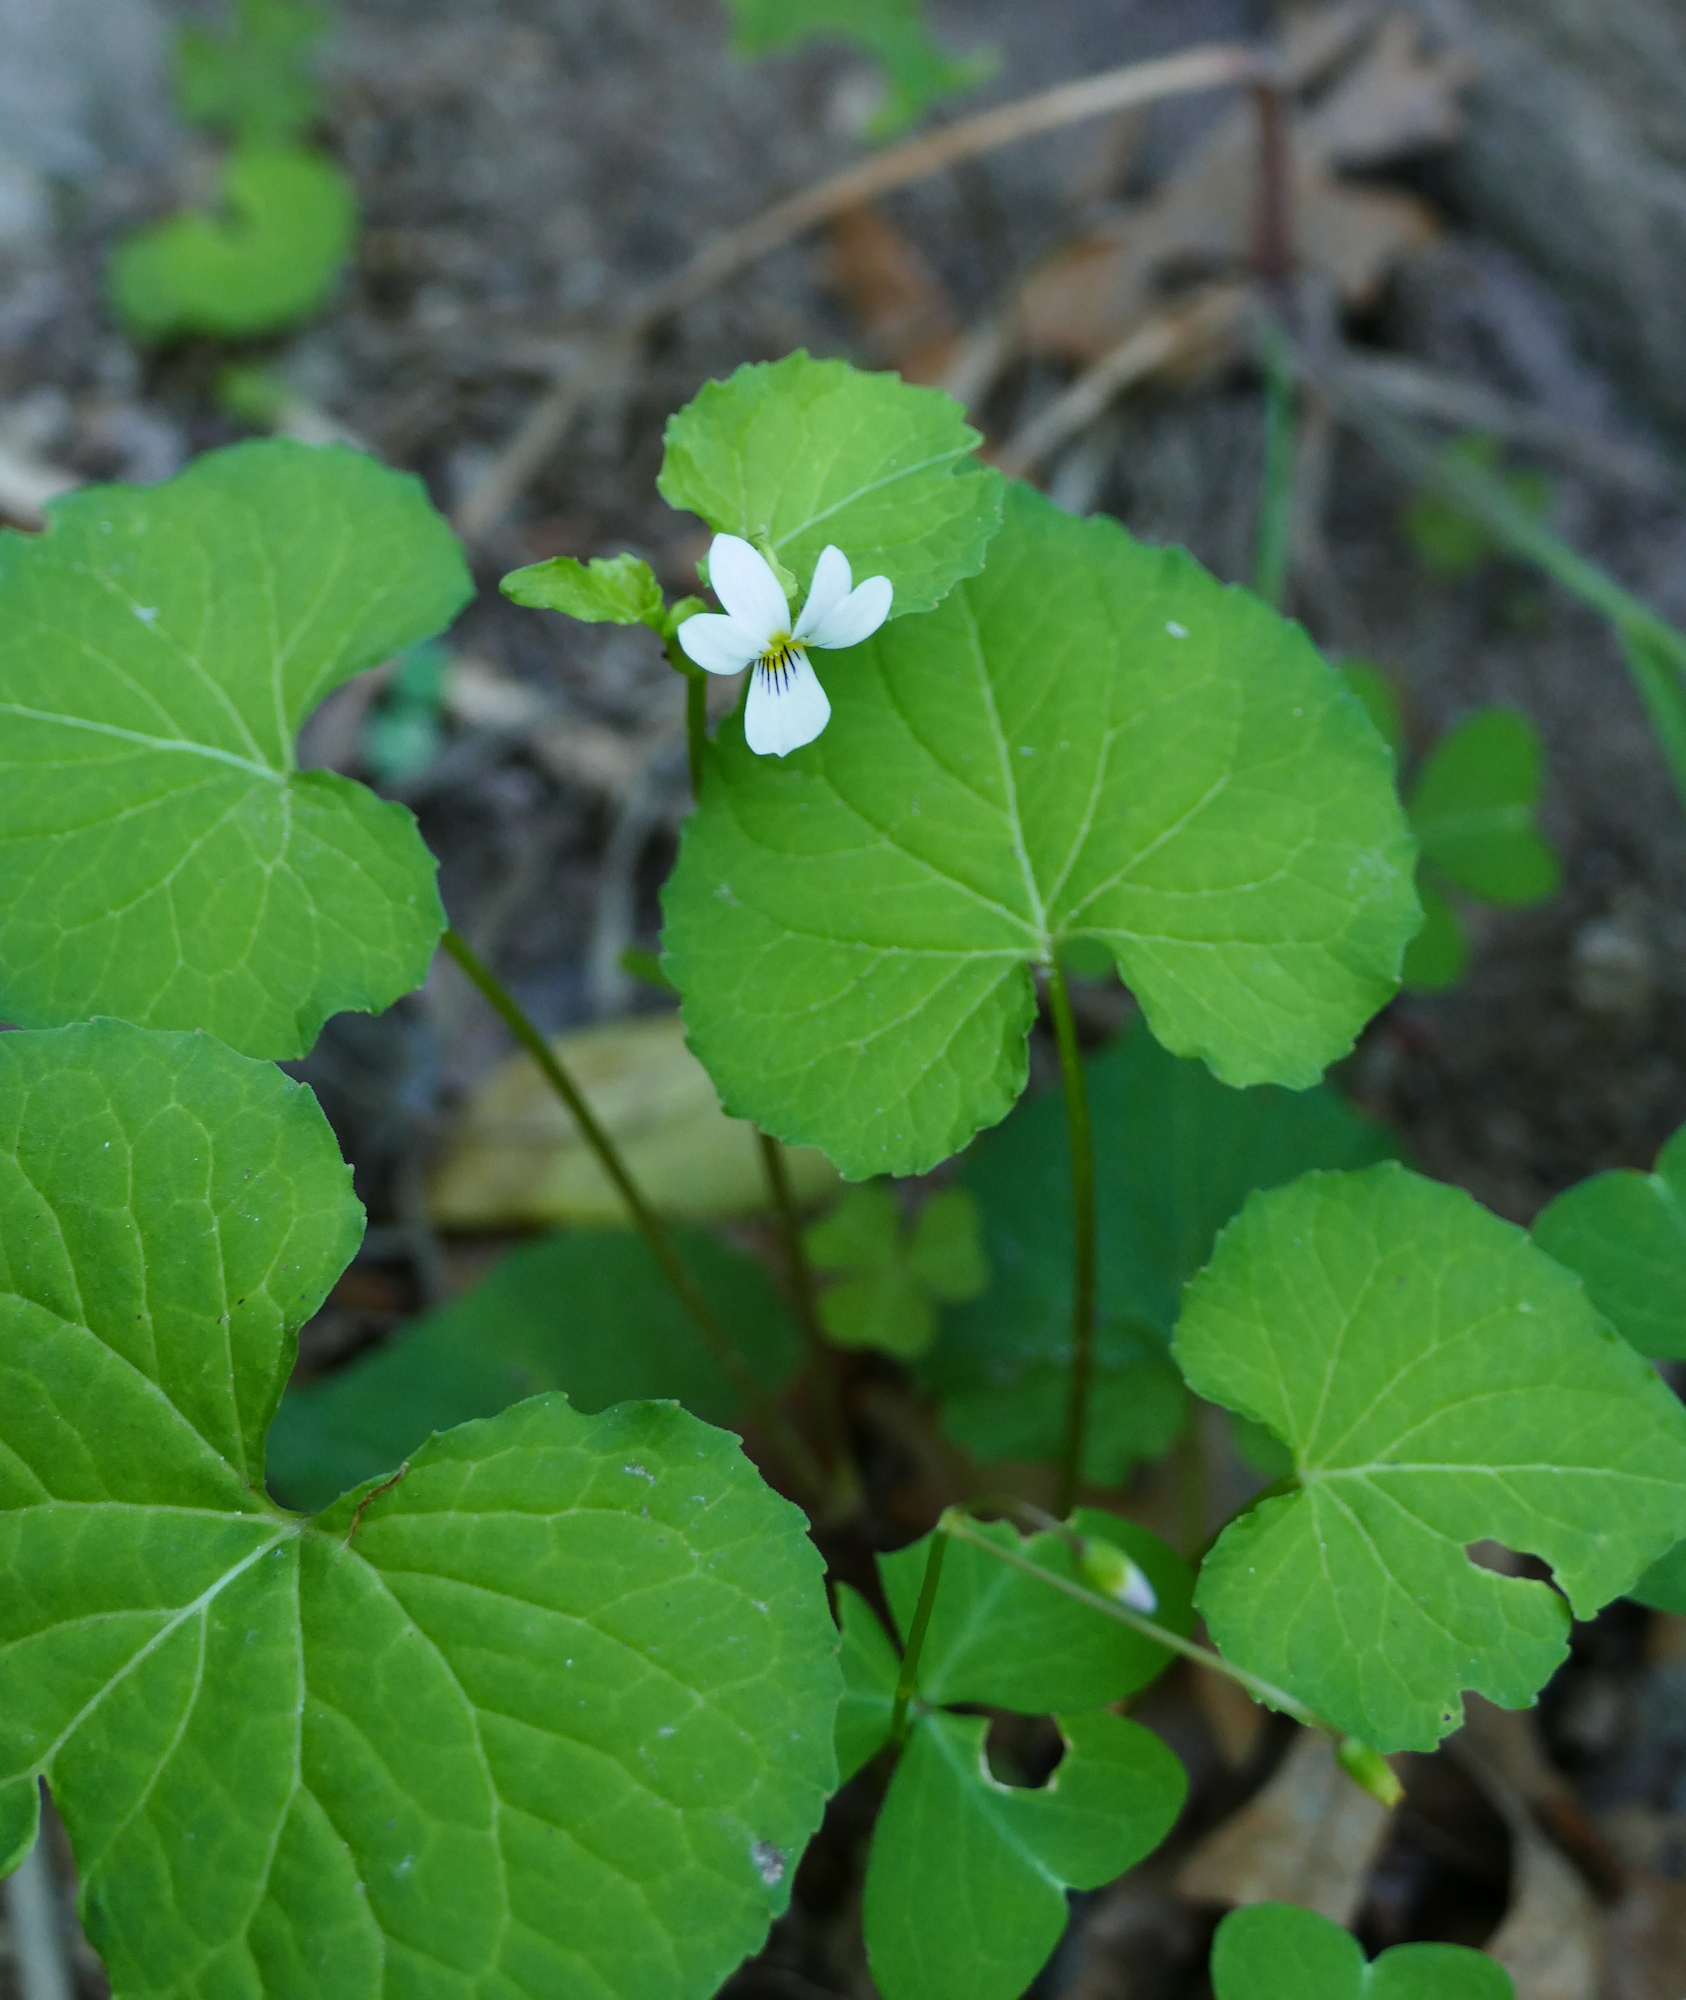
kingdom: Plantae
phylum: Tracheophyta
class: Magnoliopsida
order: Malpighiales
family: Violaceae
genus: Viola
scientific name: Viola canadensis
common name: Canada violet
